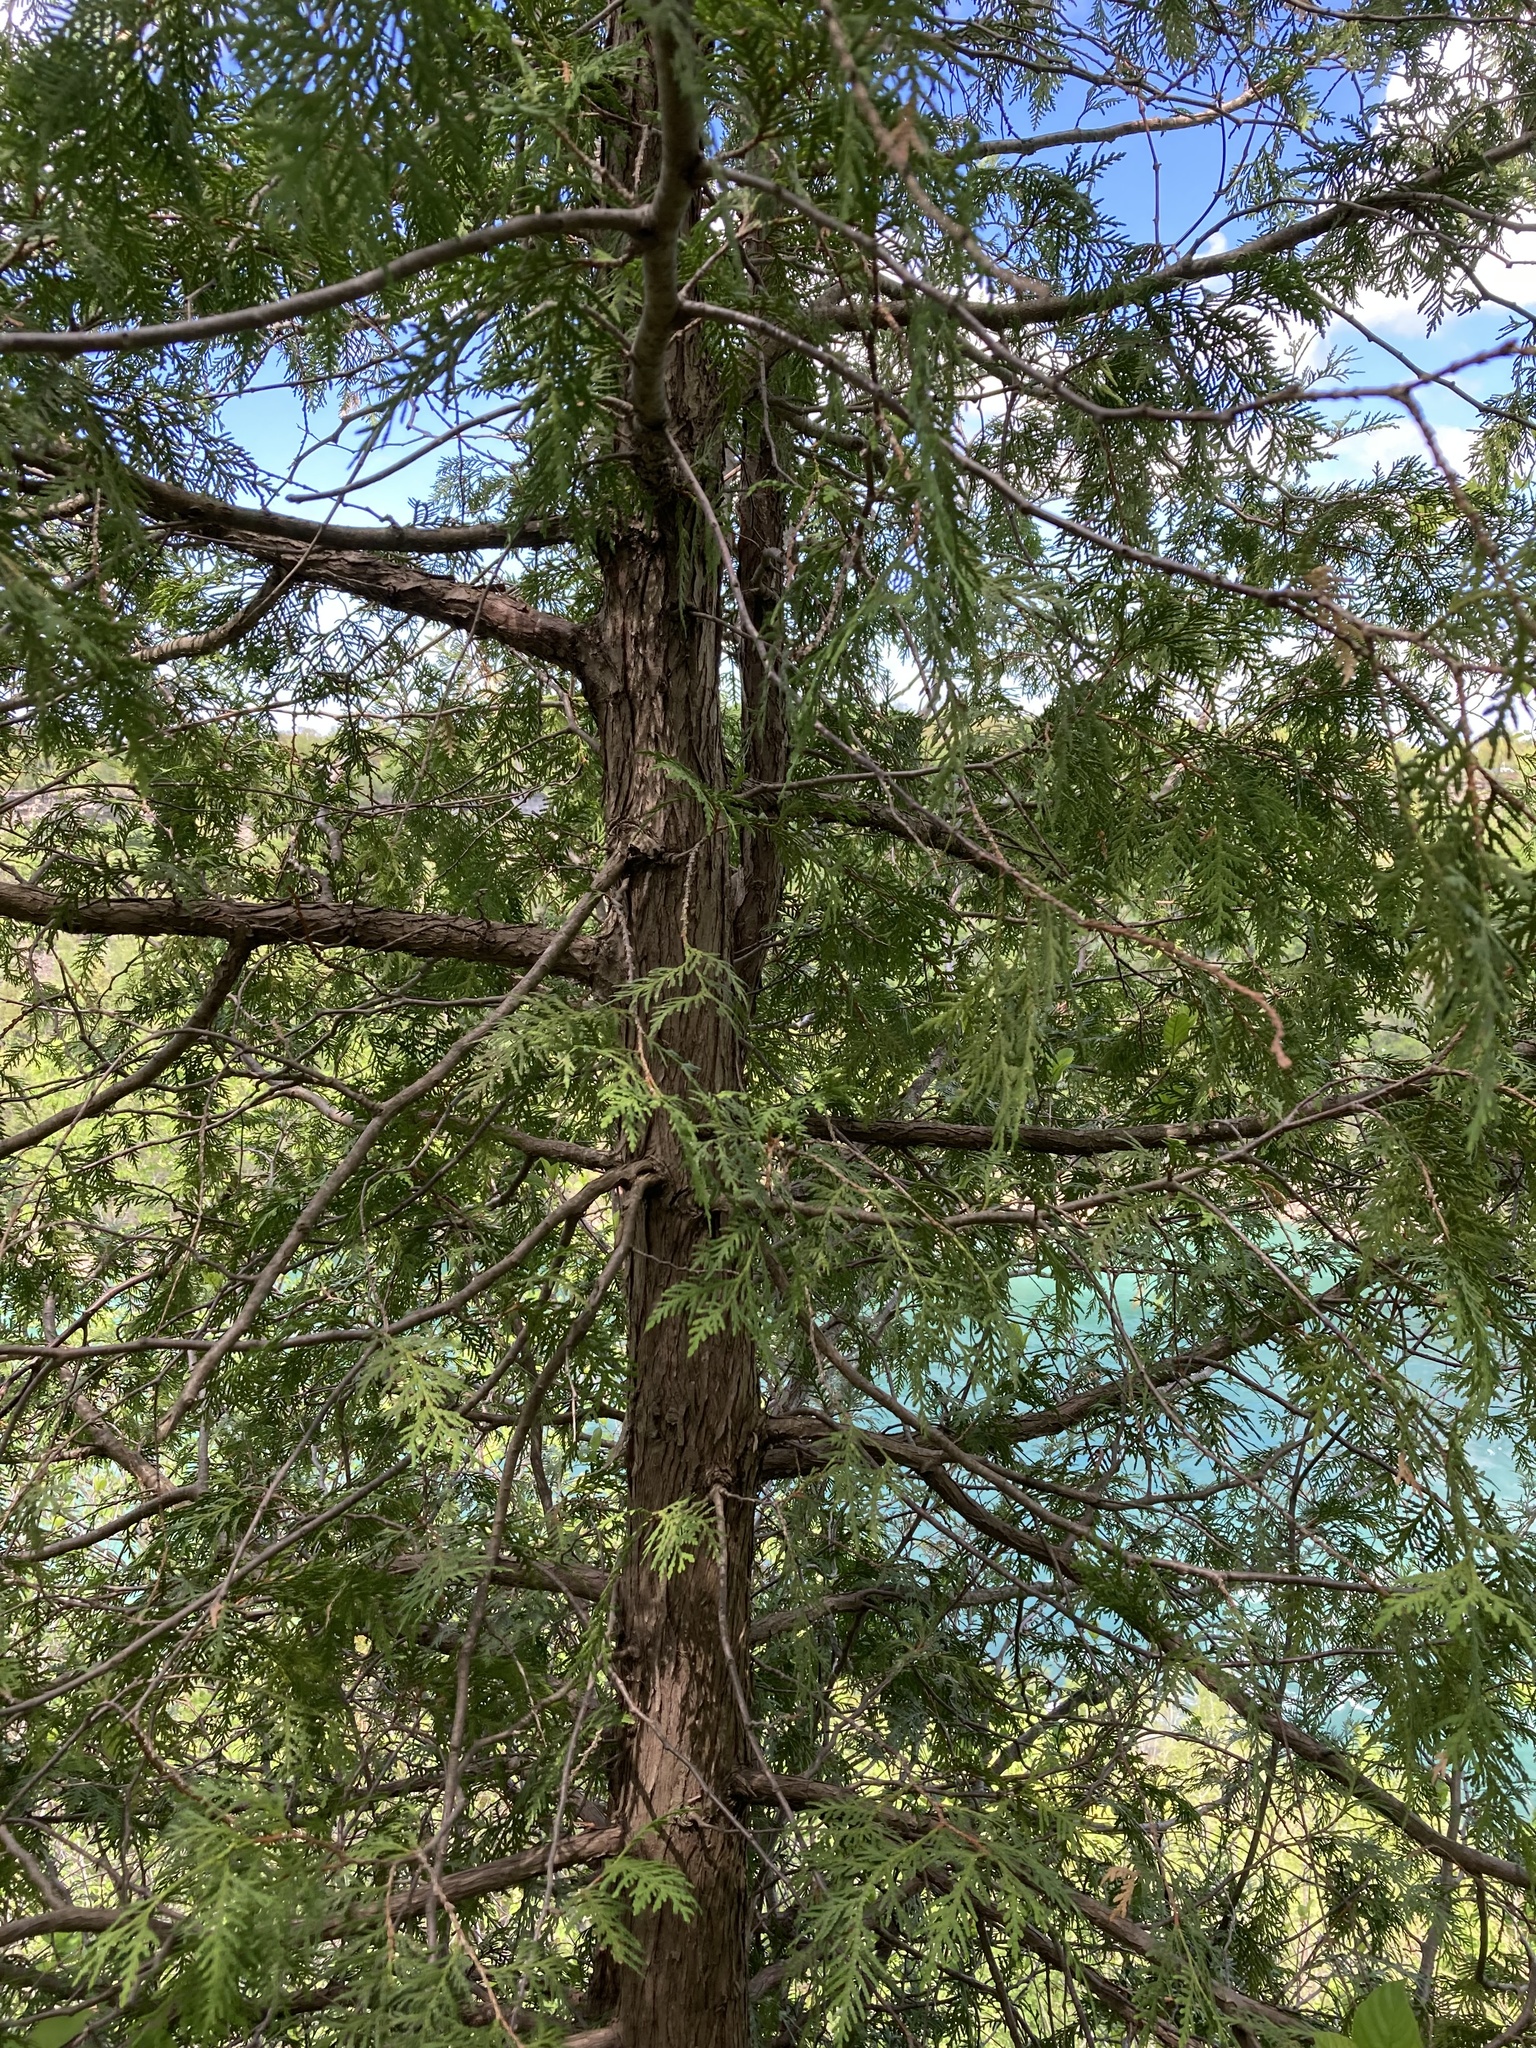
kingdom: Plantae
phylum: Tracheophyta
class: Pinopsida
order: Pinales
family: Cupressaceae
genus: Thuja
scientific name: Thuja occidentalis
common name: Northern white-cedar
